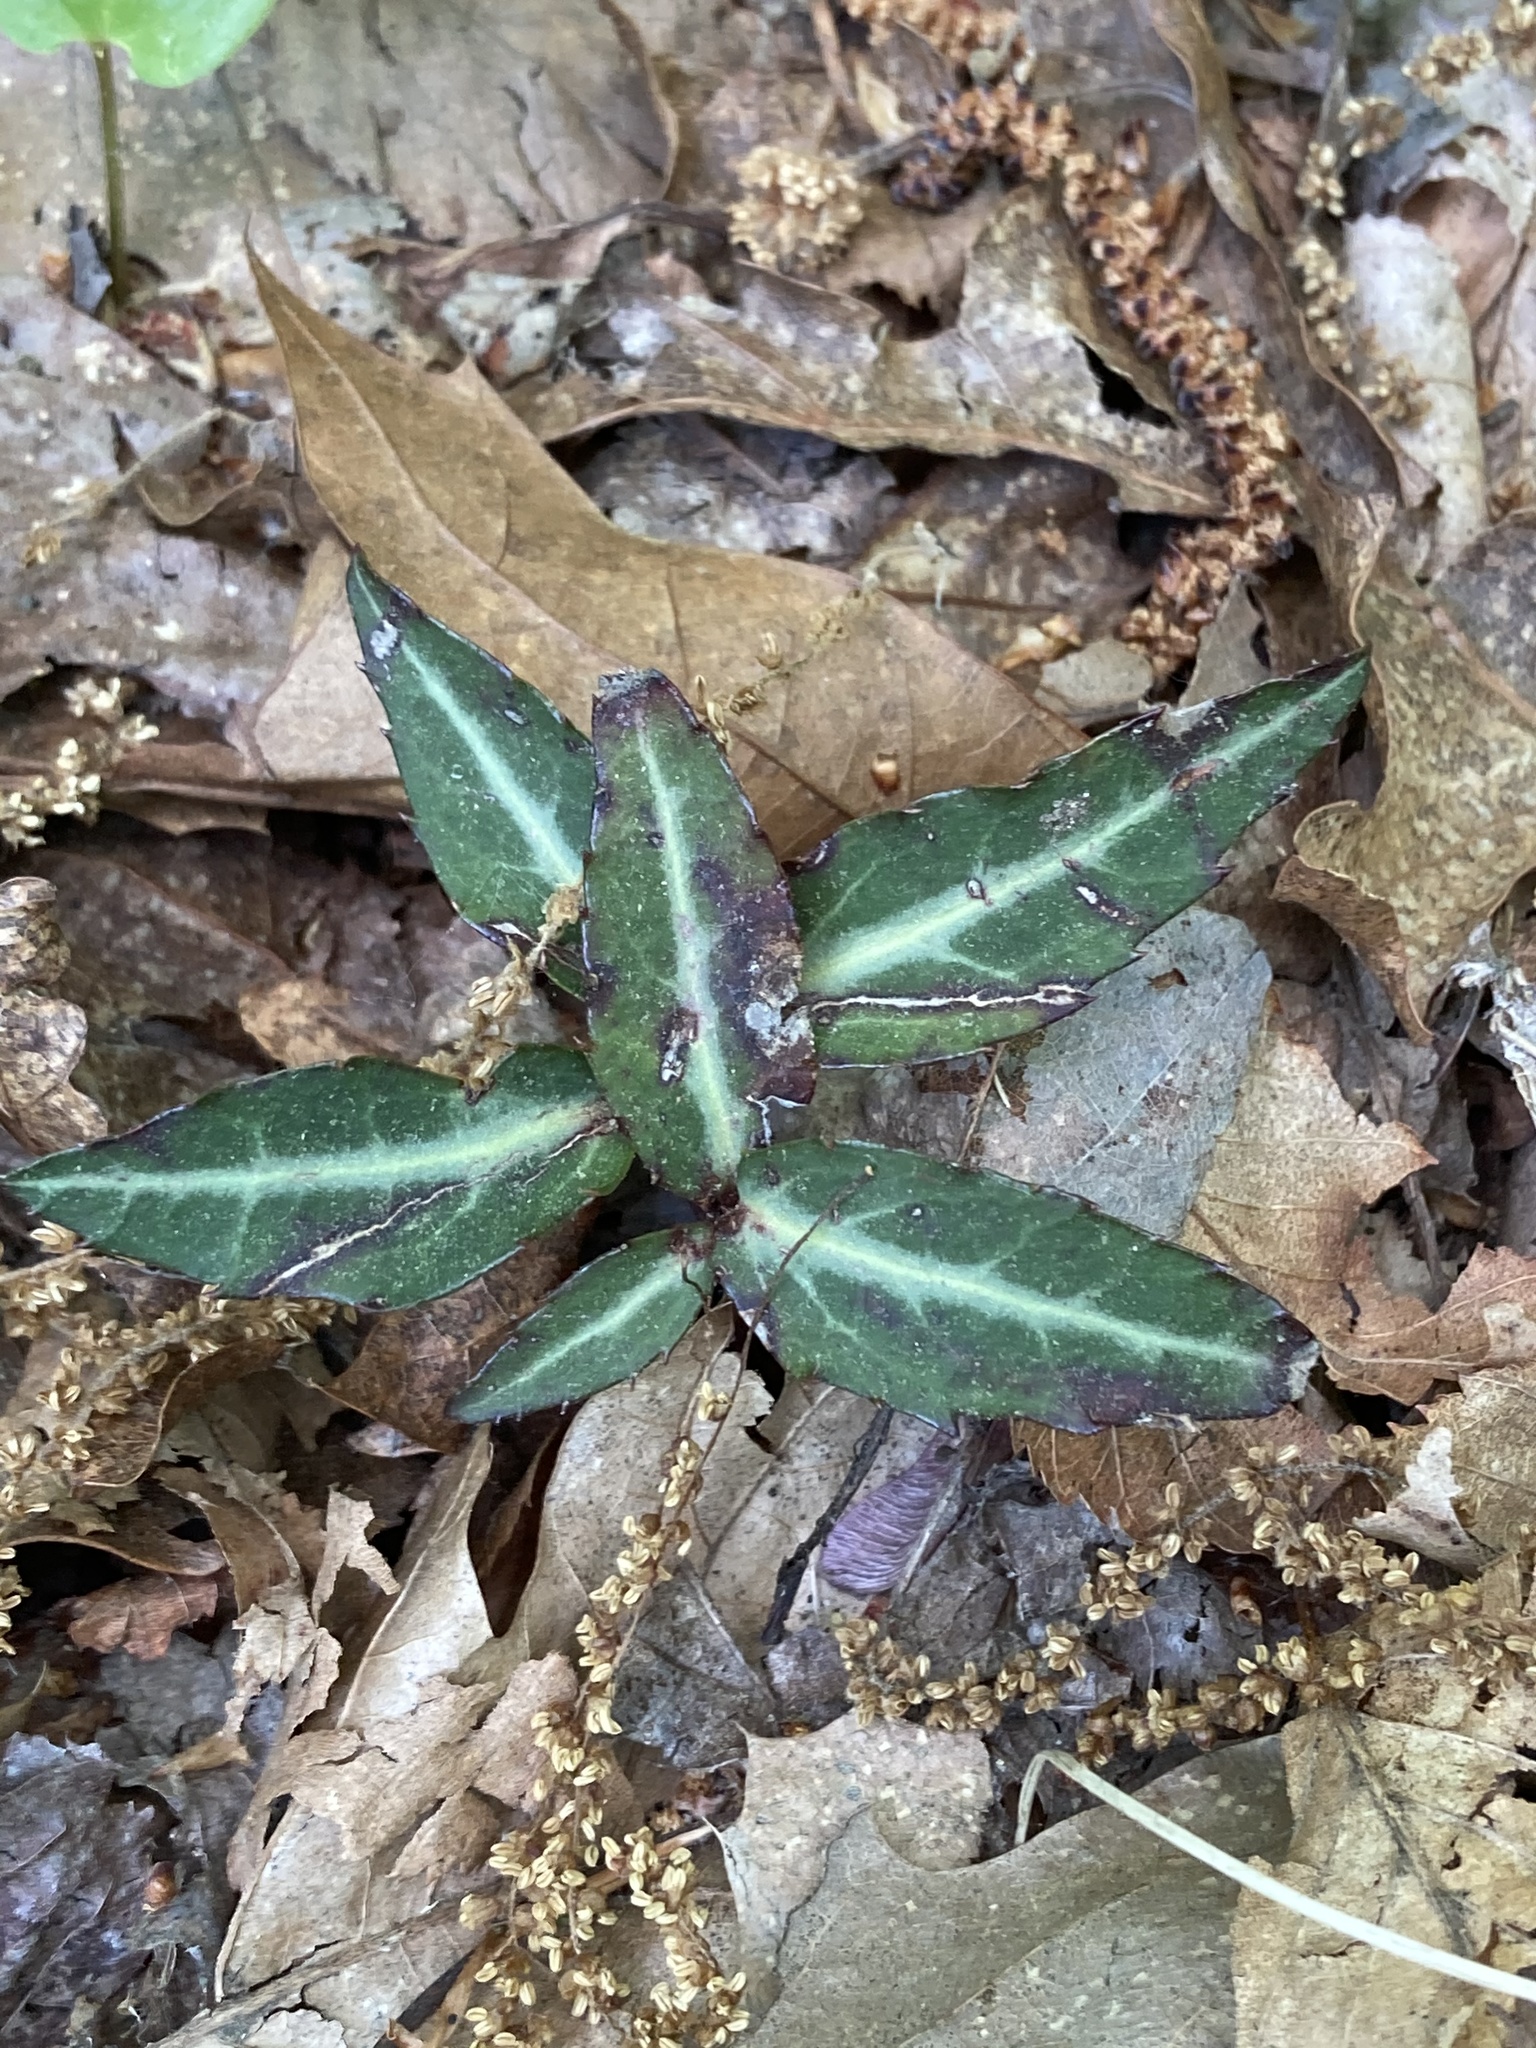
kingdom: Plantae
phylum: Tracheophyta
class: Magnoliopsida
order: Ericales
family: Ericaceae
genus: Chimaphila
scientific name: Chimaphila maculata
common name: Spotted pipsissewa
